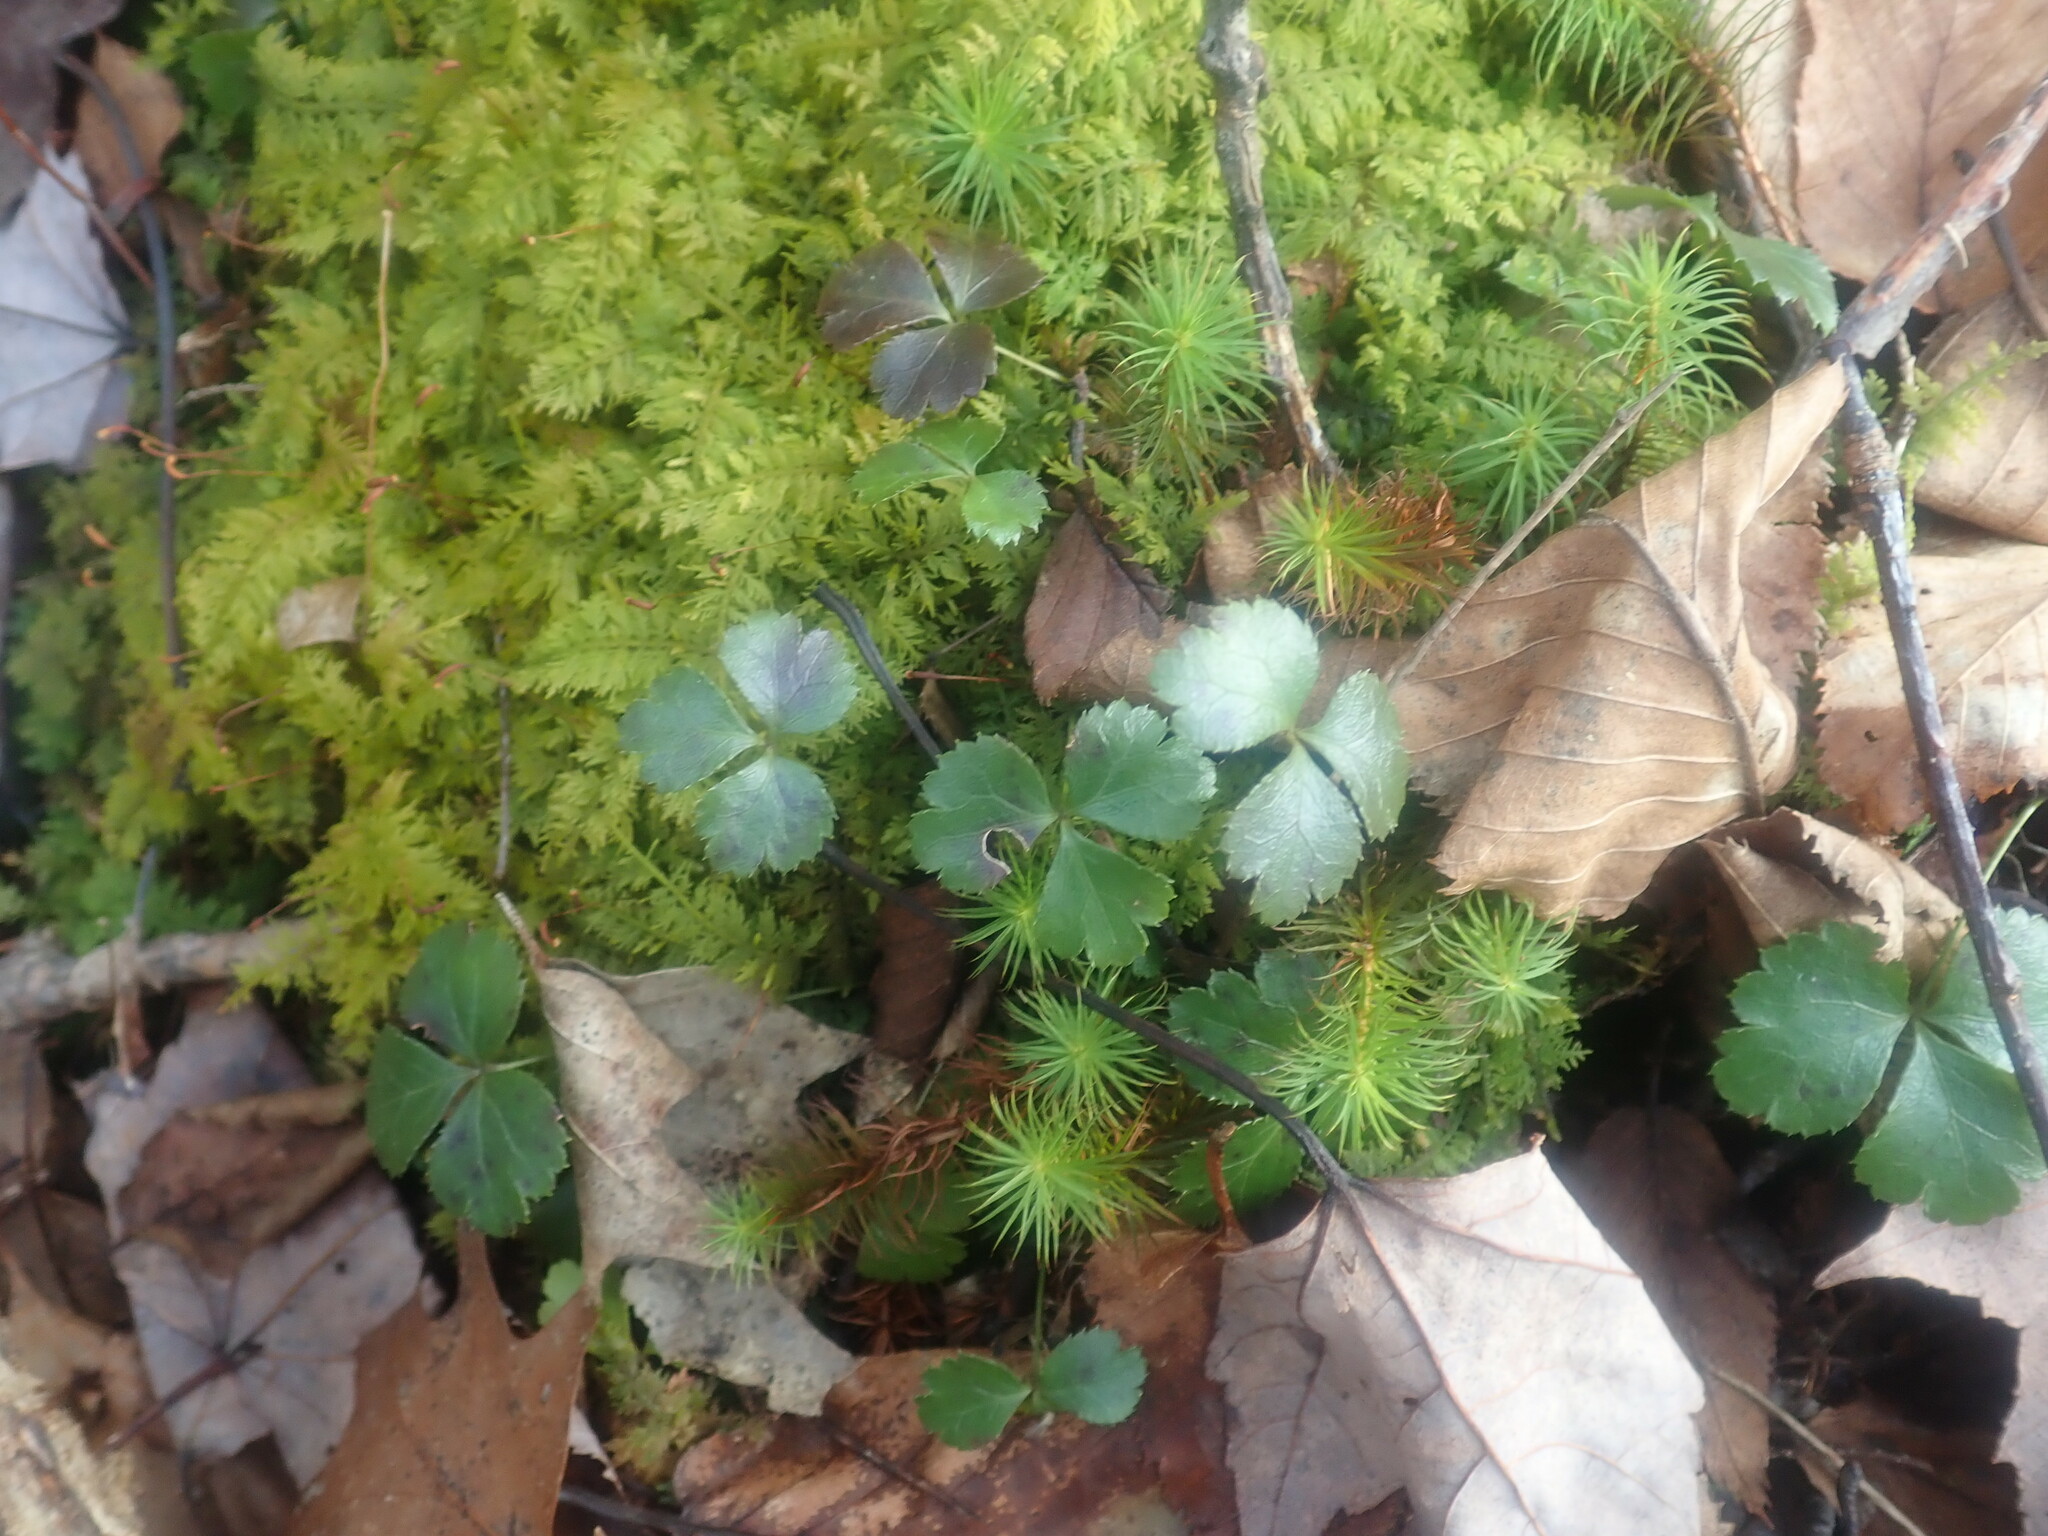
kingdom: Plantae
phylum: Tracheophyta
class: Magnoliopsida
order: Ranunculales
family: Ranunculaceae
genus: Coptis
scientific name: Coptis trifolia
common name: Canker-root
